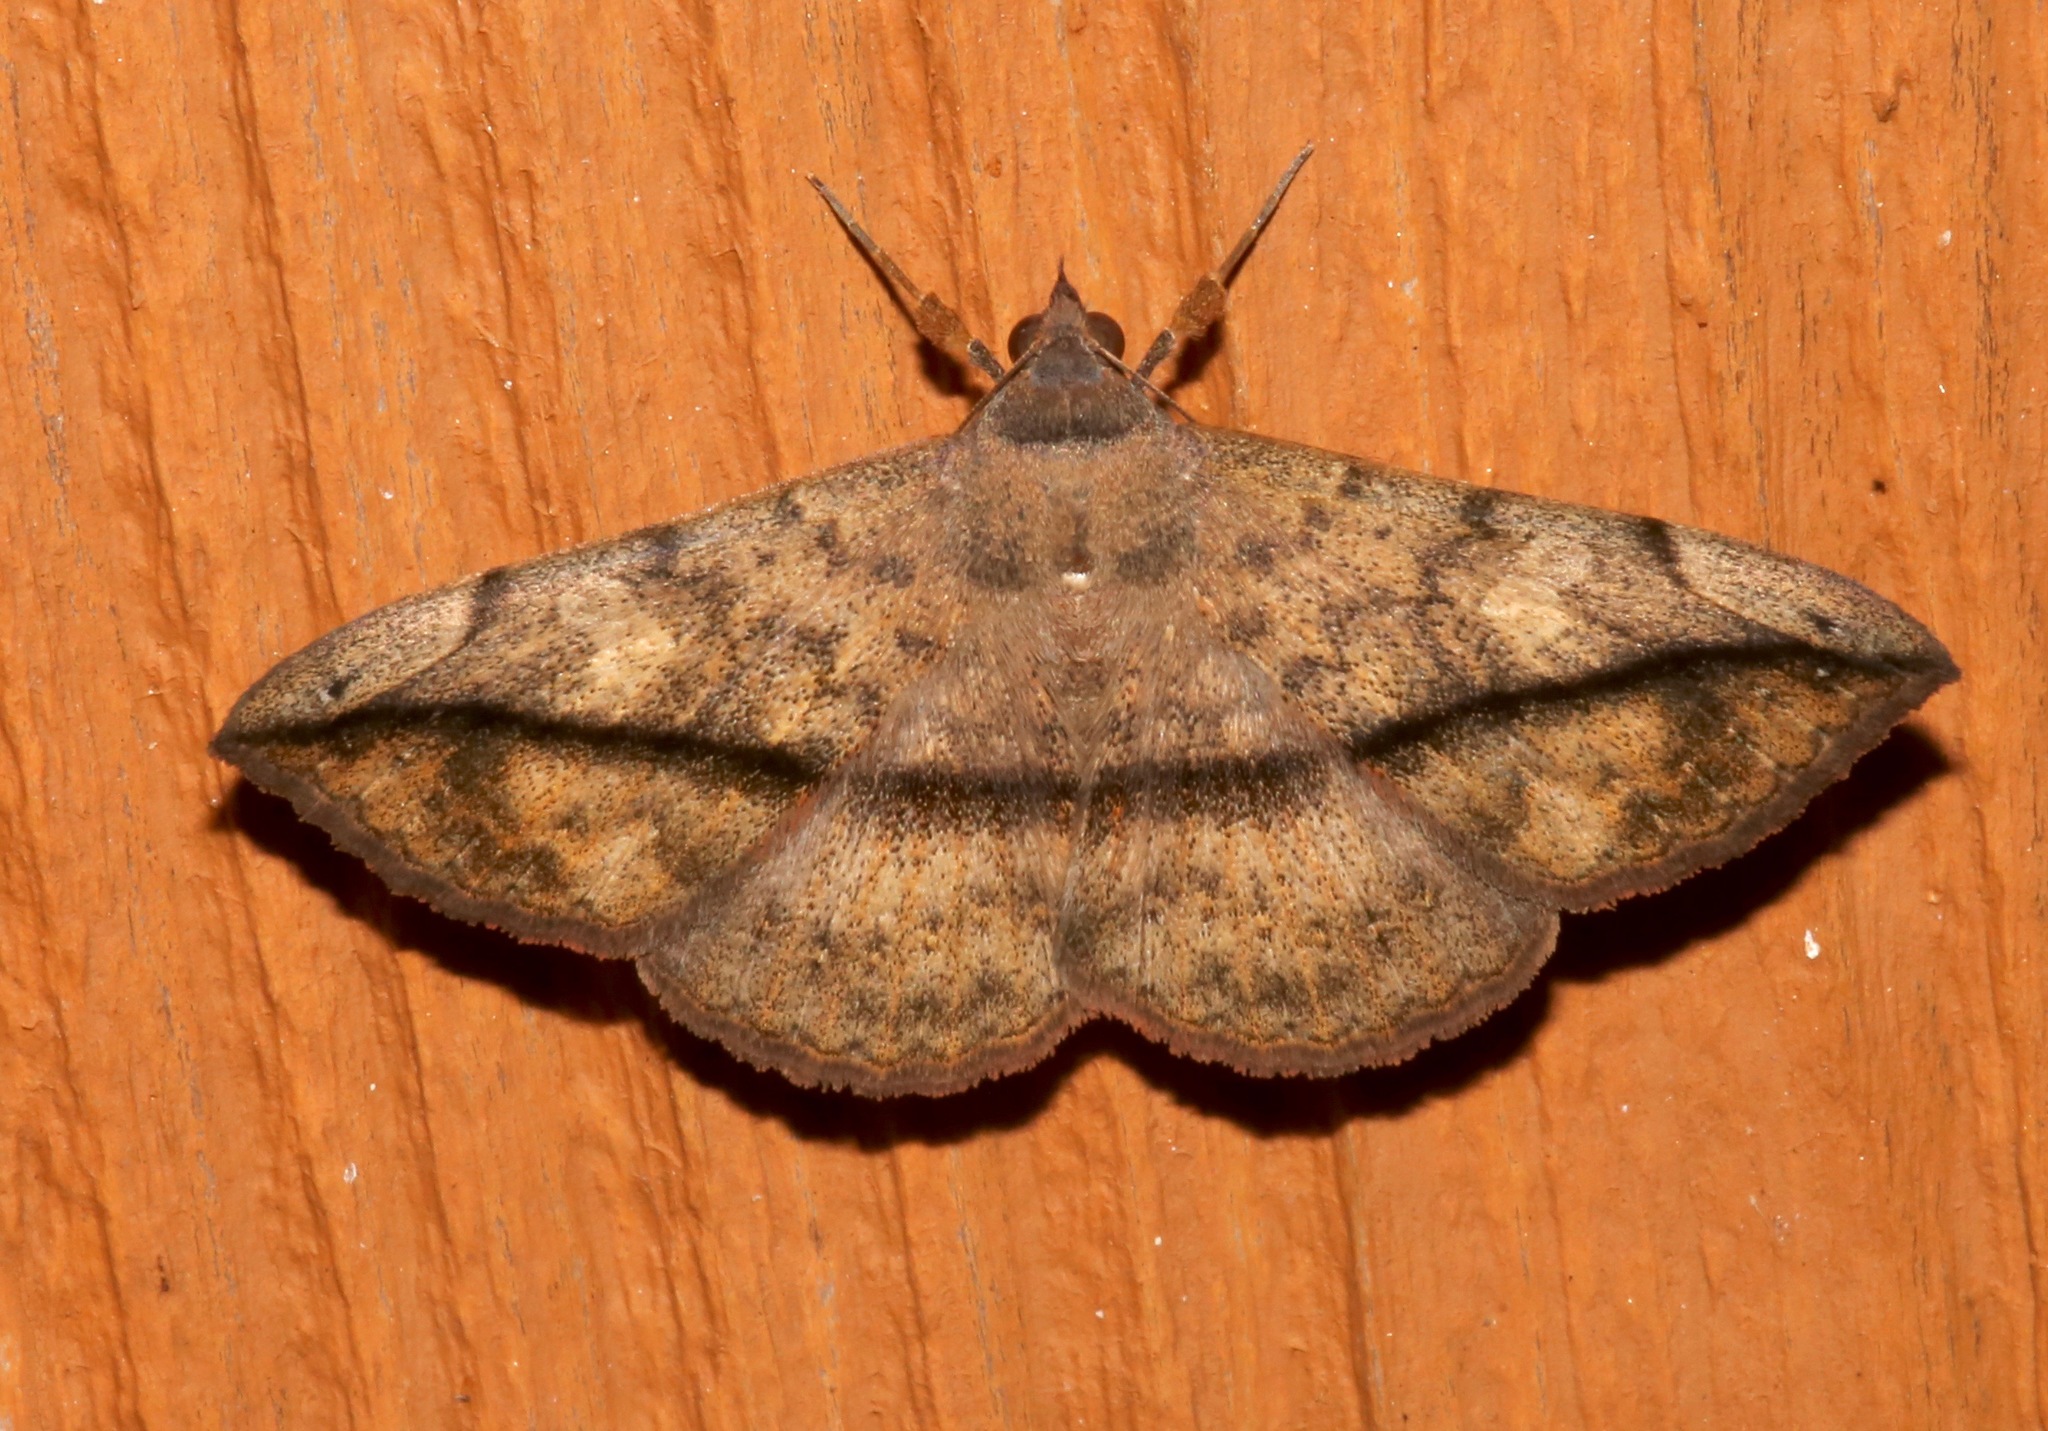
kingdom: Animalia
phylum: Arthropoda
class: Insecta
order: Lepidoptera
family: Erebidae
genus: Anticarsia
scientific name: Anticarsia gemmatalis
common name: Cutworm moth
